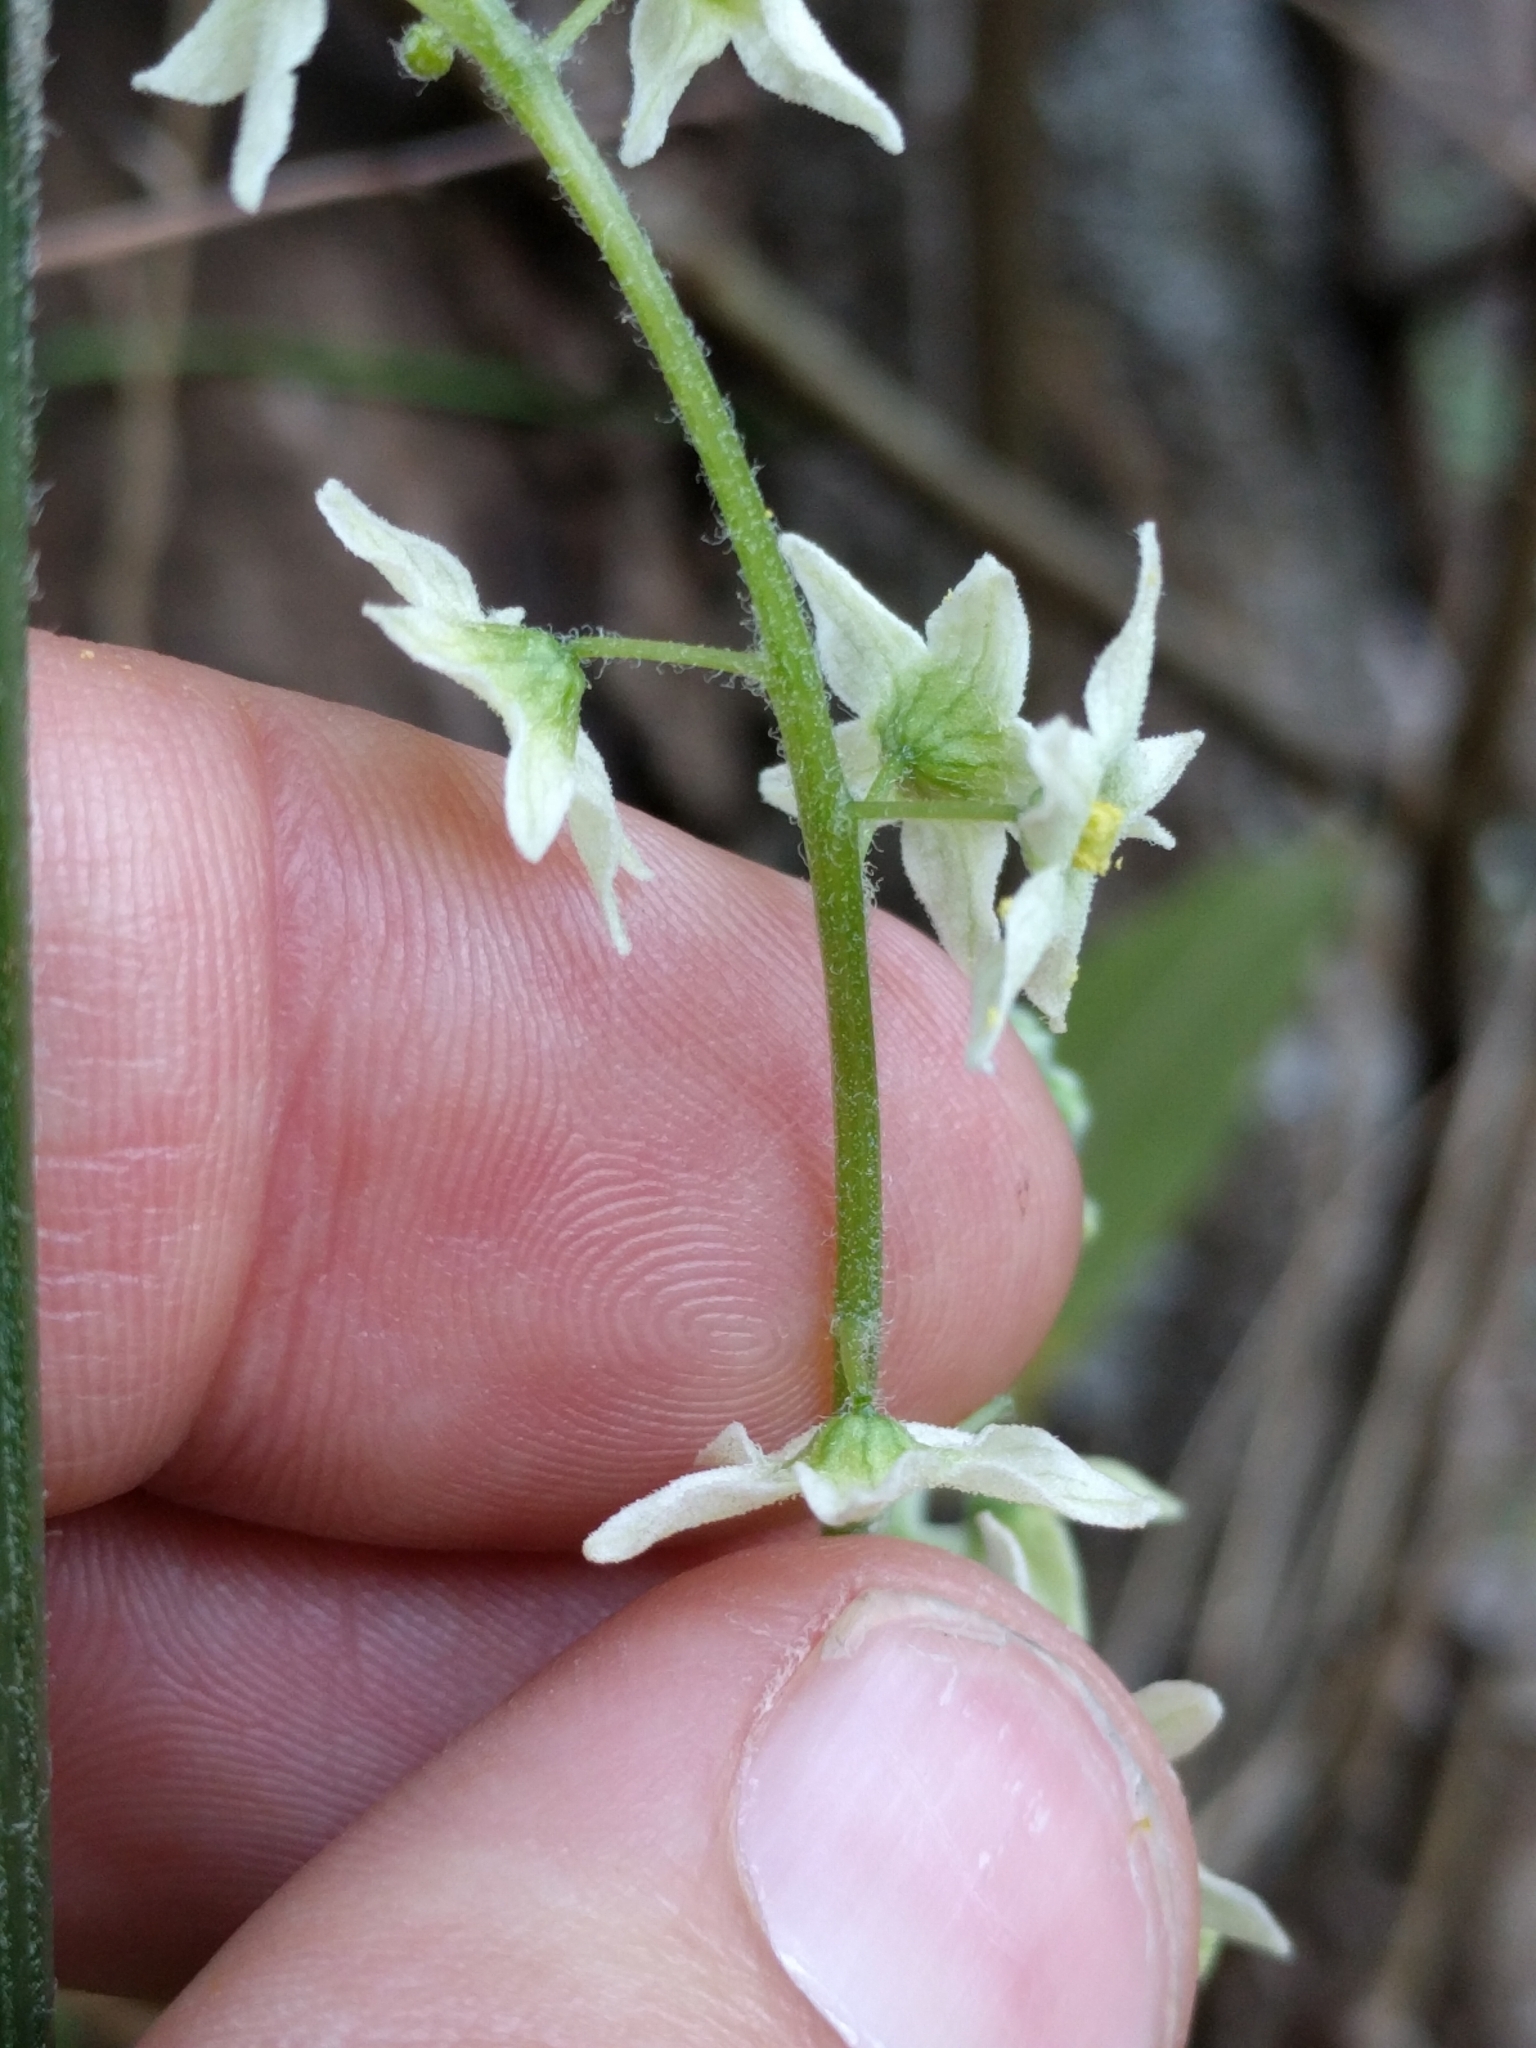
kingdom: Plantae
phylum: Tracheophyta
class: Magnoliopsida
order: Cucurbitales
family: Cucurbitaceae
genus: Marah
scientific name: Marah fabacea
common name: California manroot
